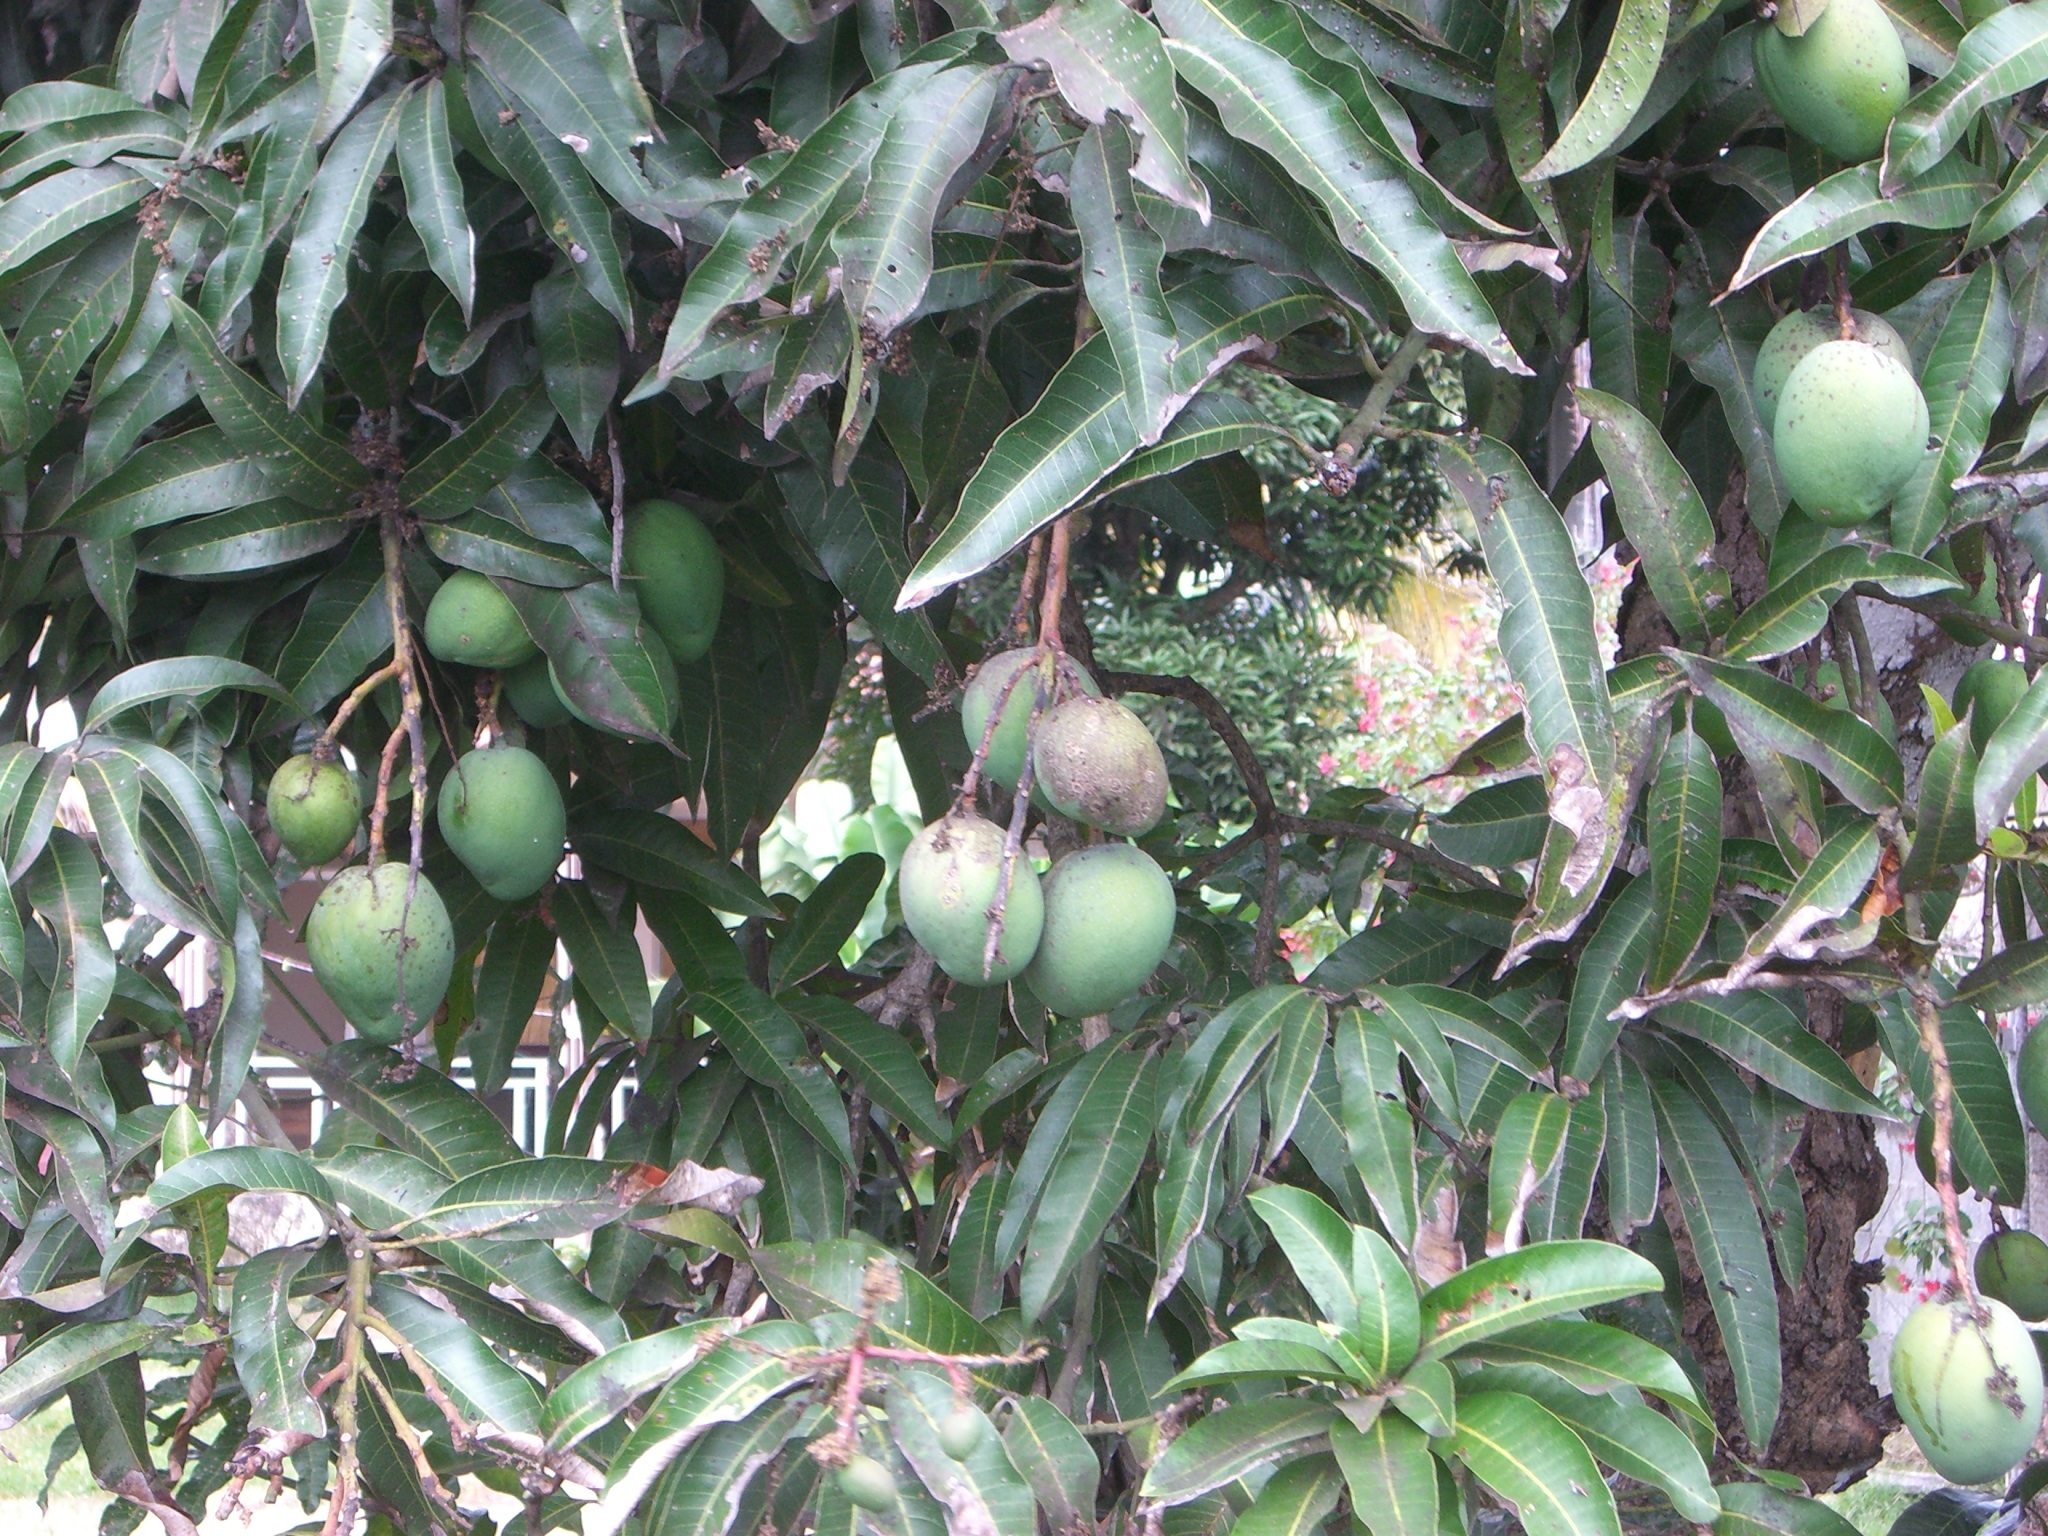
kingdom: Plantae
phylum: Tracheophyta
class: Magnoliopsida
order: Sapindales
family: Anacardiaceae
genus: Mangifera
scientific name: Mangifera indica
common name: Mango
